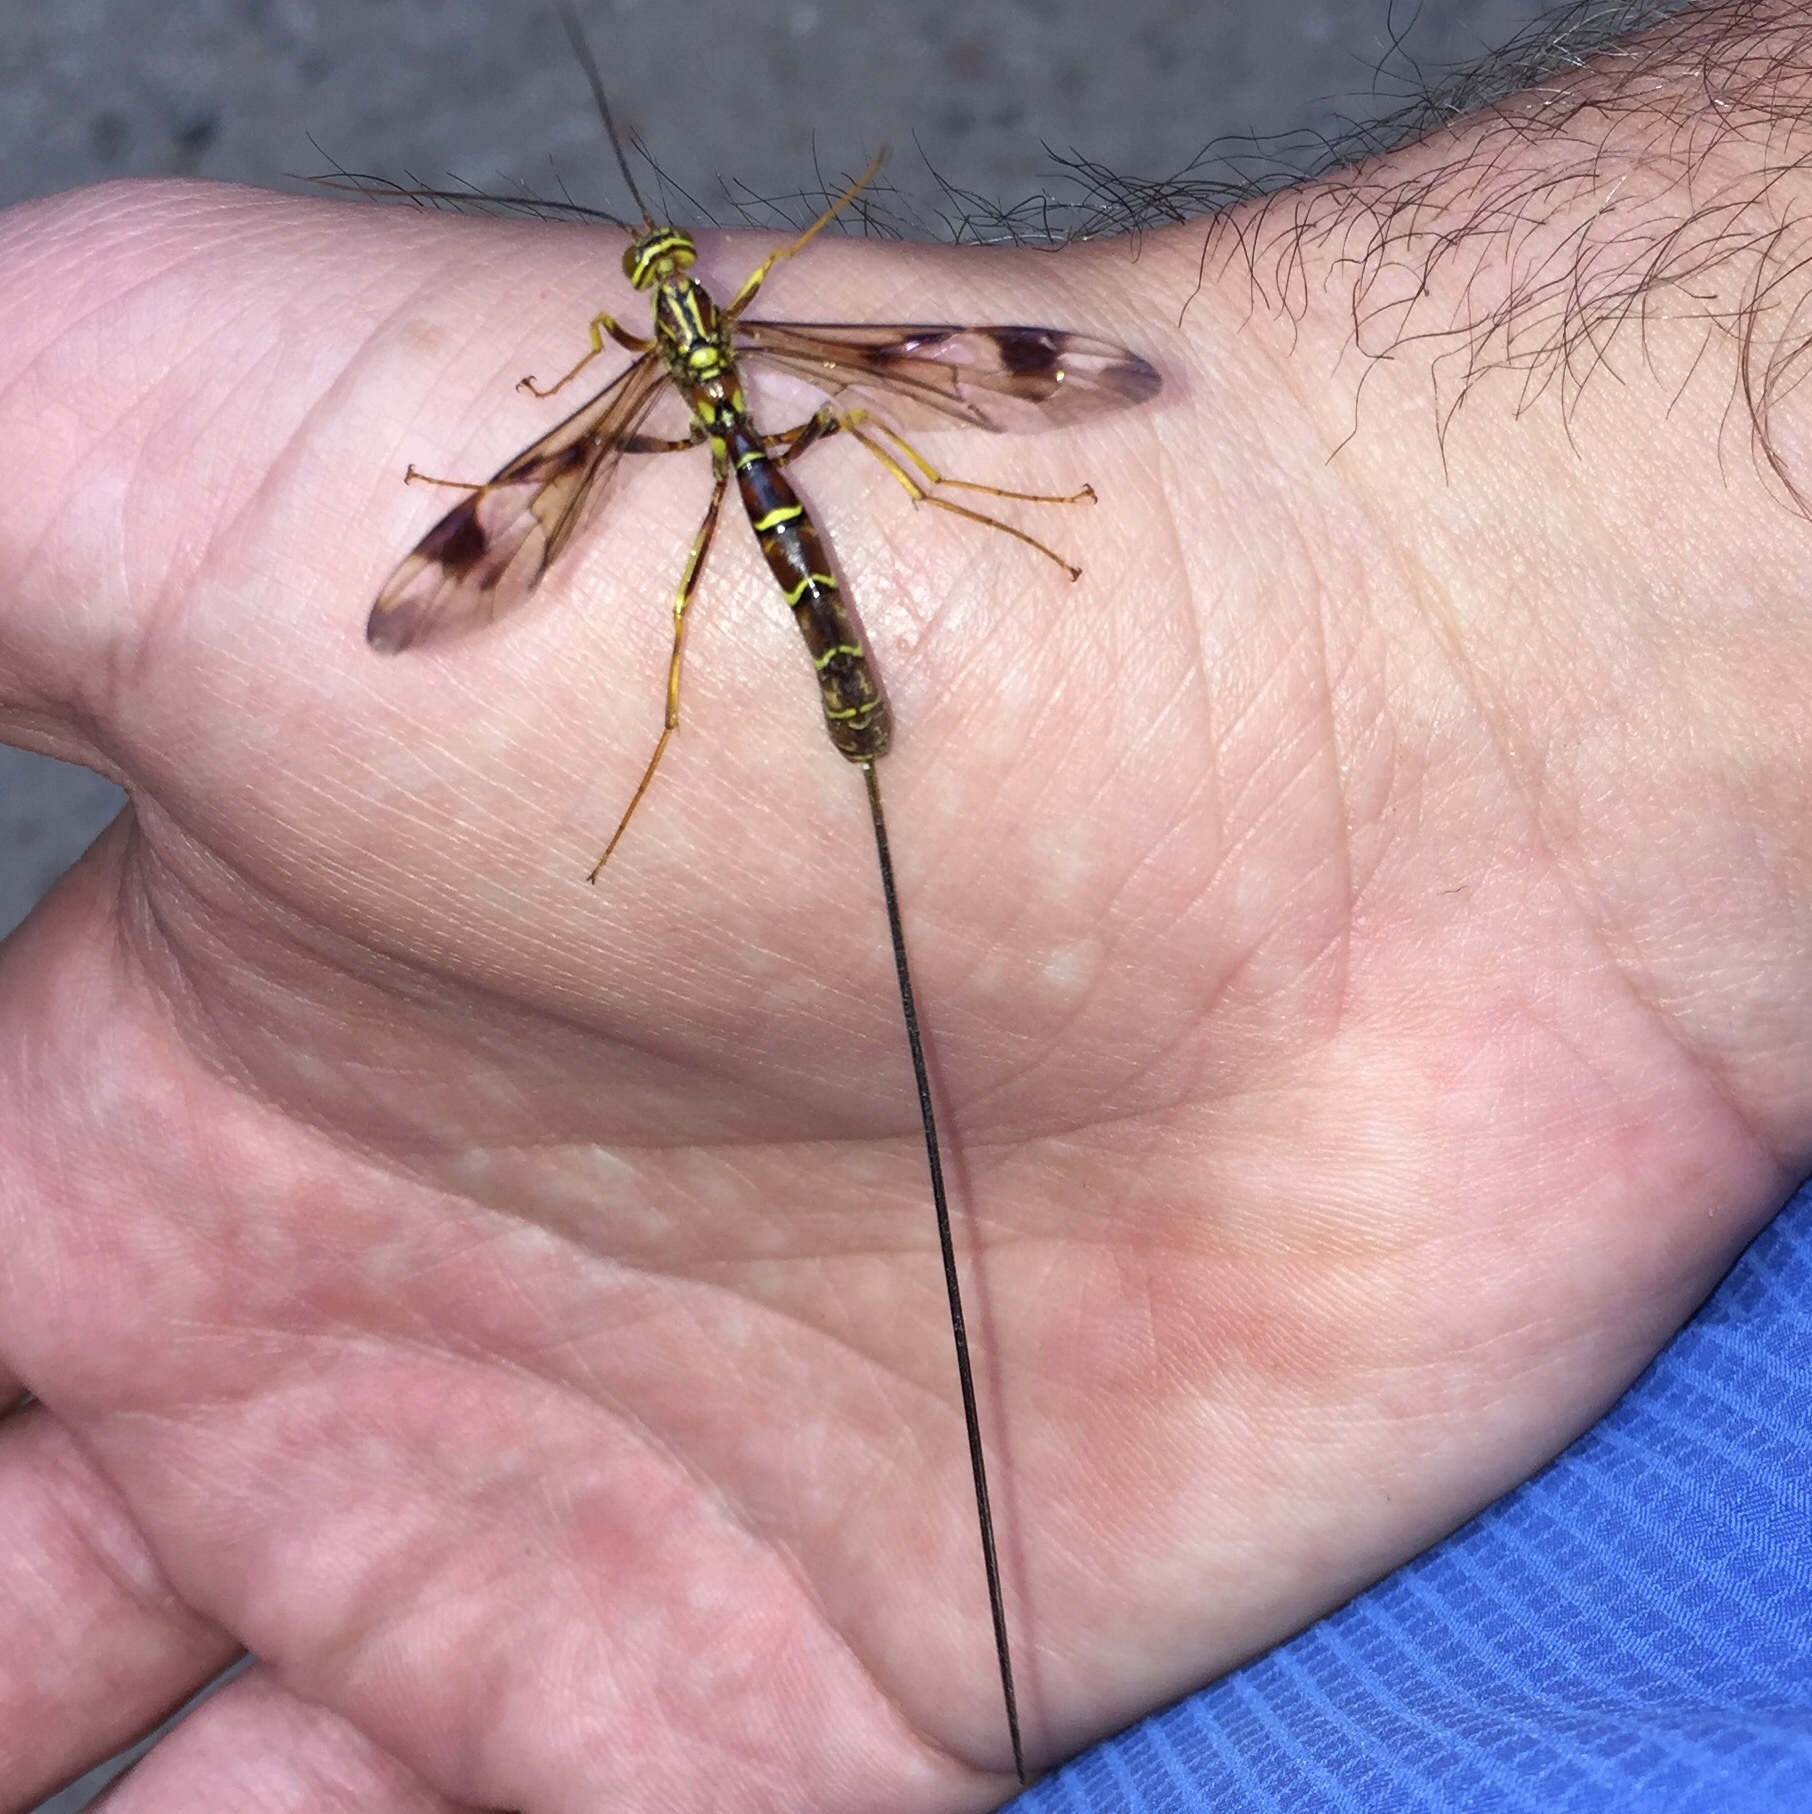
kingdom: Animalia
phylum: Arthropoda
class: Insecta
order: Hymenoptera
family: Ichneumonidae
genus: Megarhyssa
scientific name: Megarhyssa macrura
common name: Long-tailed giant ichneumonid wasp
